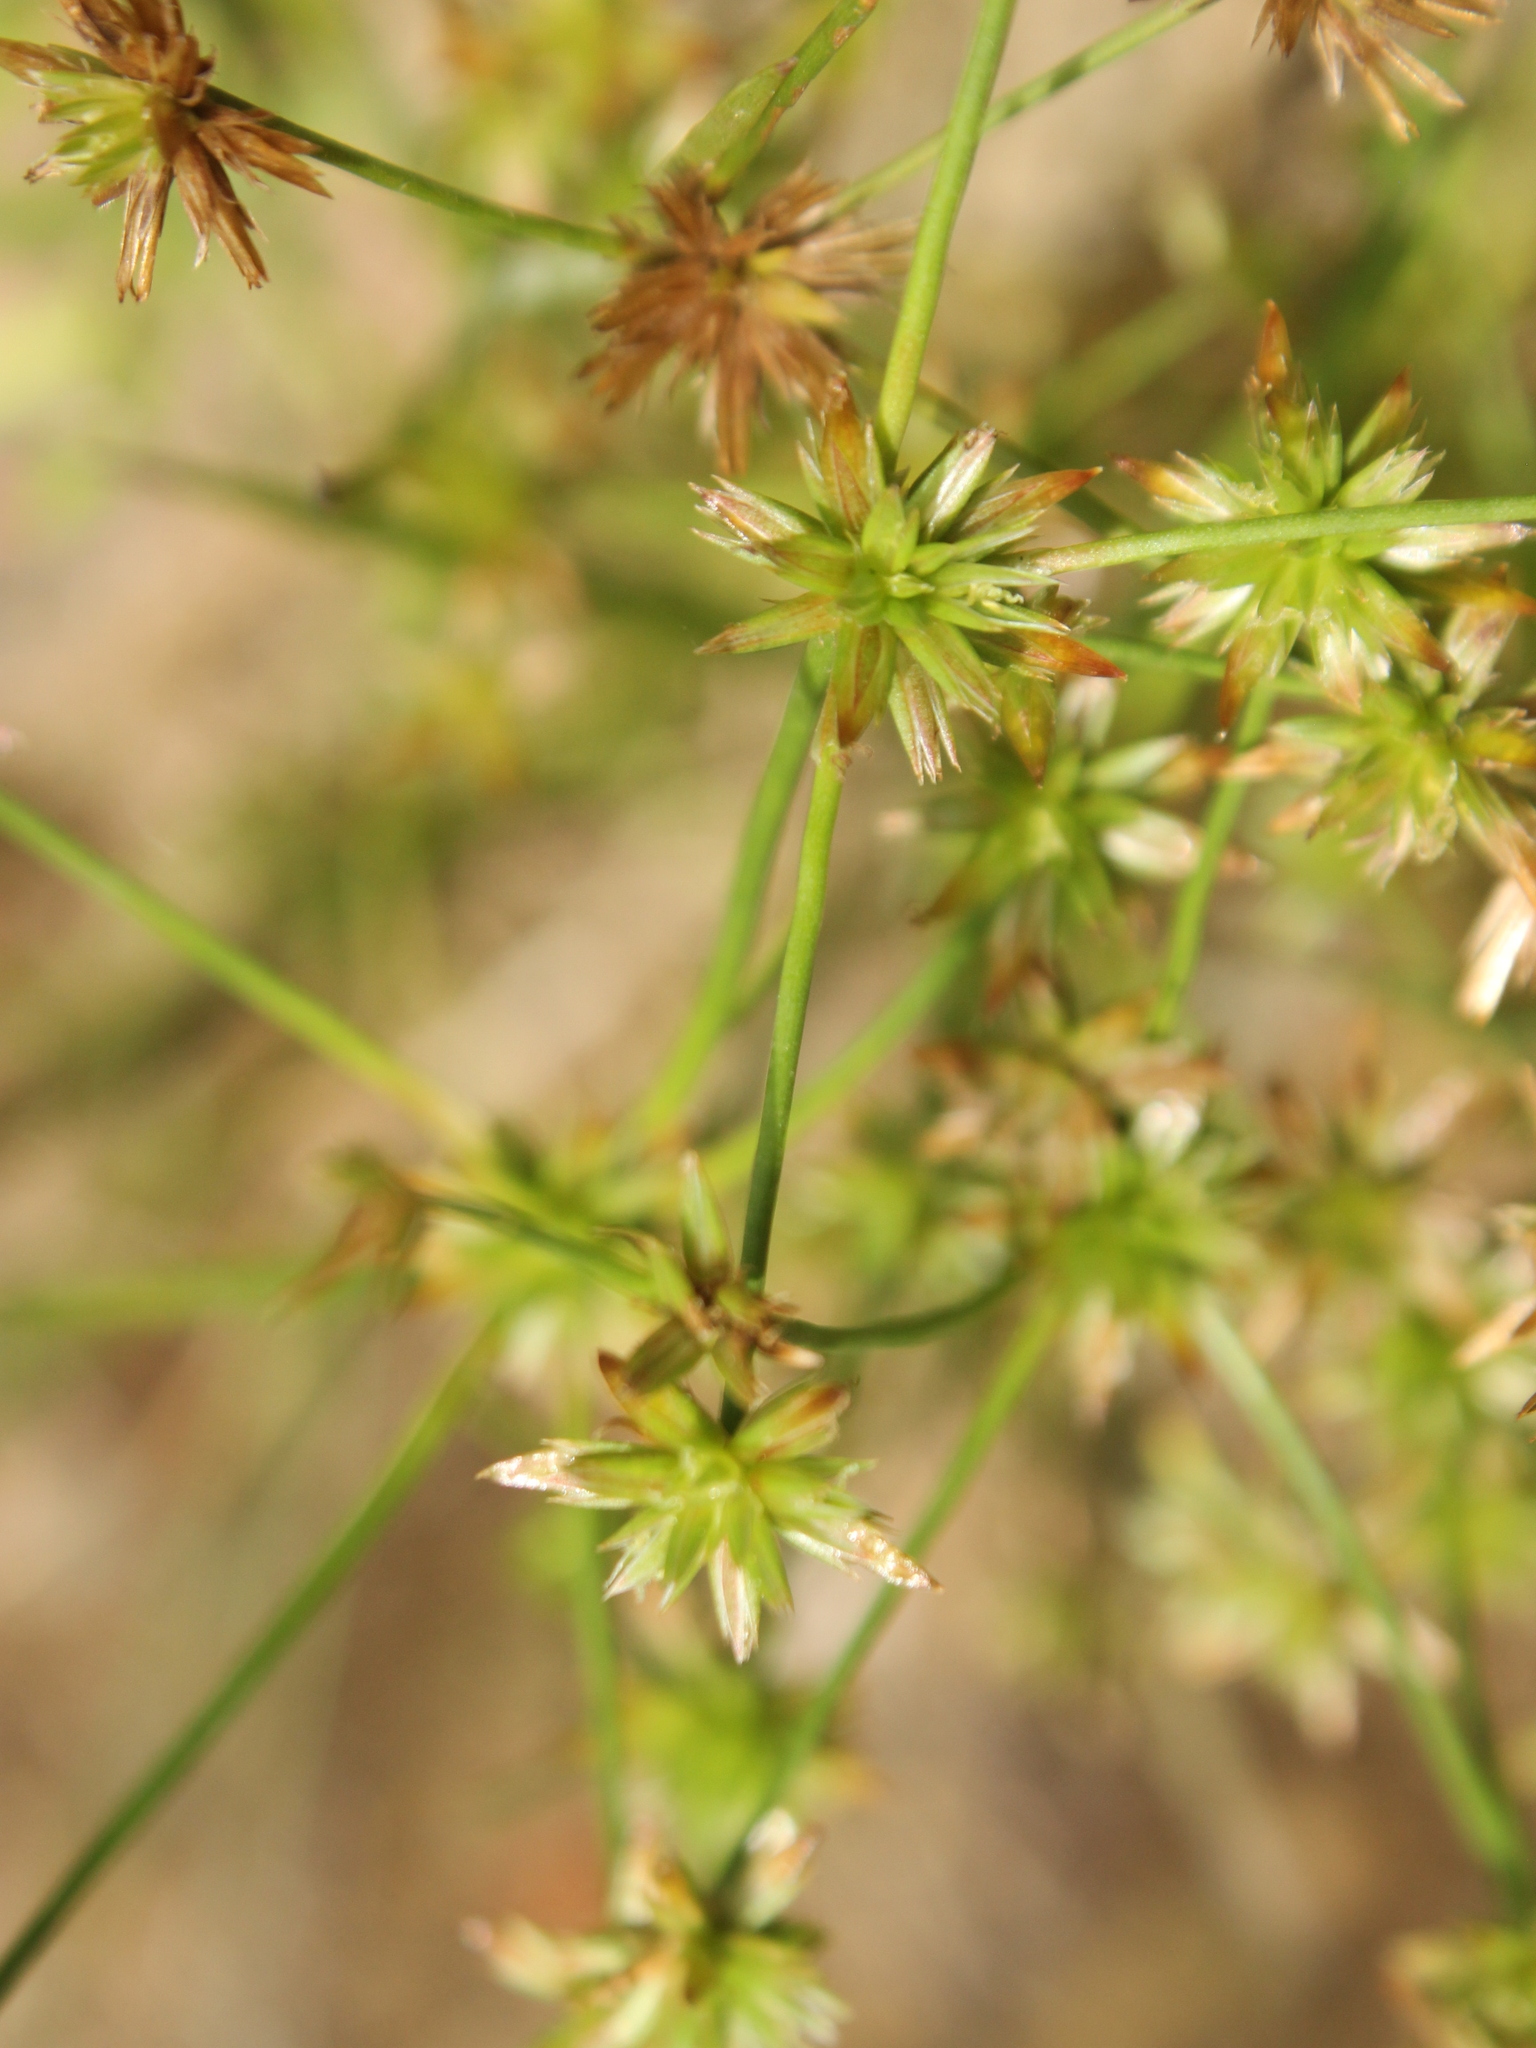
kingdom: Plantae
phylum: Tracheophyta
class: Liliopsida
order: Poales
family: Juncaceae
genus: Juncus
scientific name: Juncus prismatocarpus
